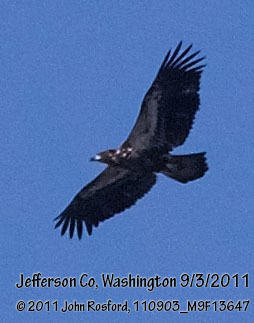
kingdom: Animalia
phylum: Chordata
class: Aves
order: Accipitriformes
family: Accipitridae
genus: Haliaeetus
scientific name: Haliaeetus leucocephalus
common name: Bald eagle
